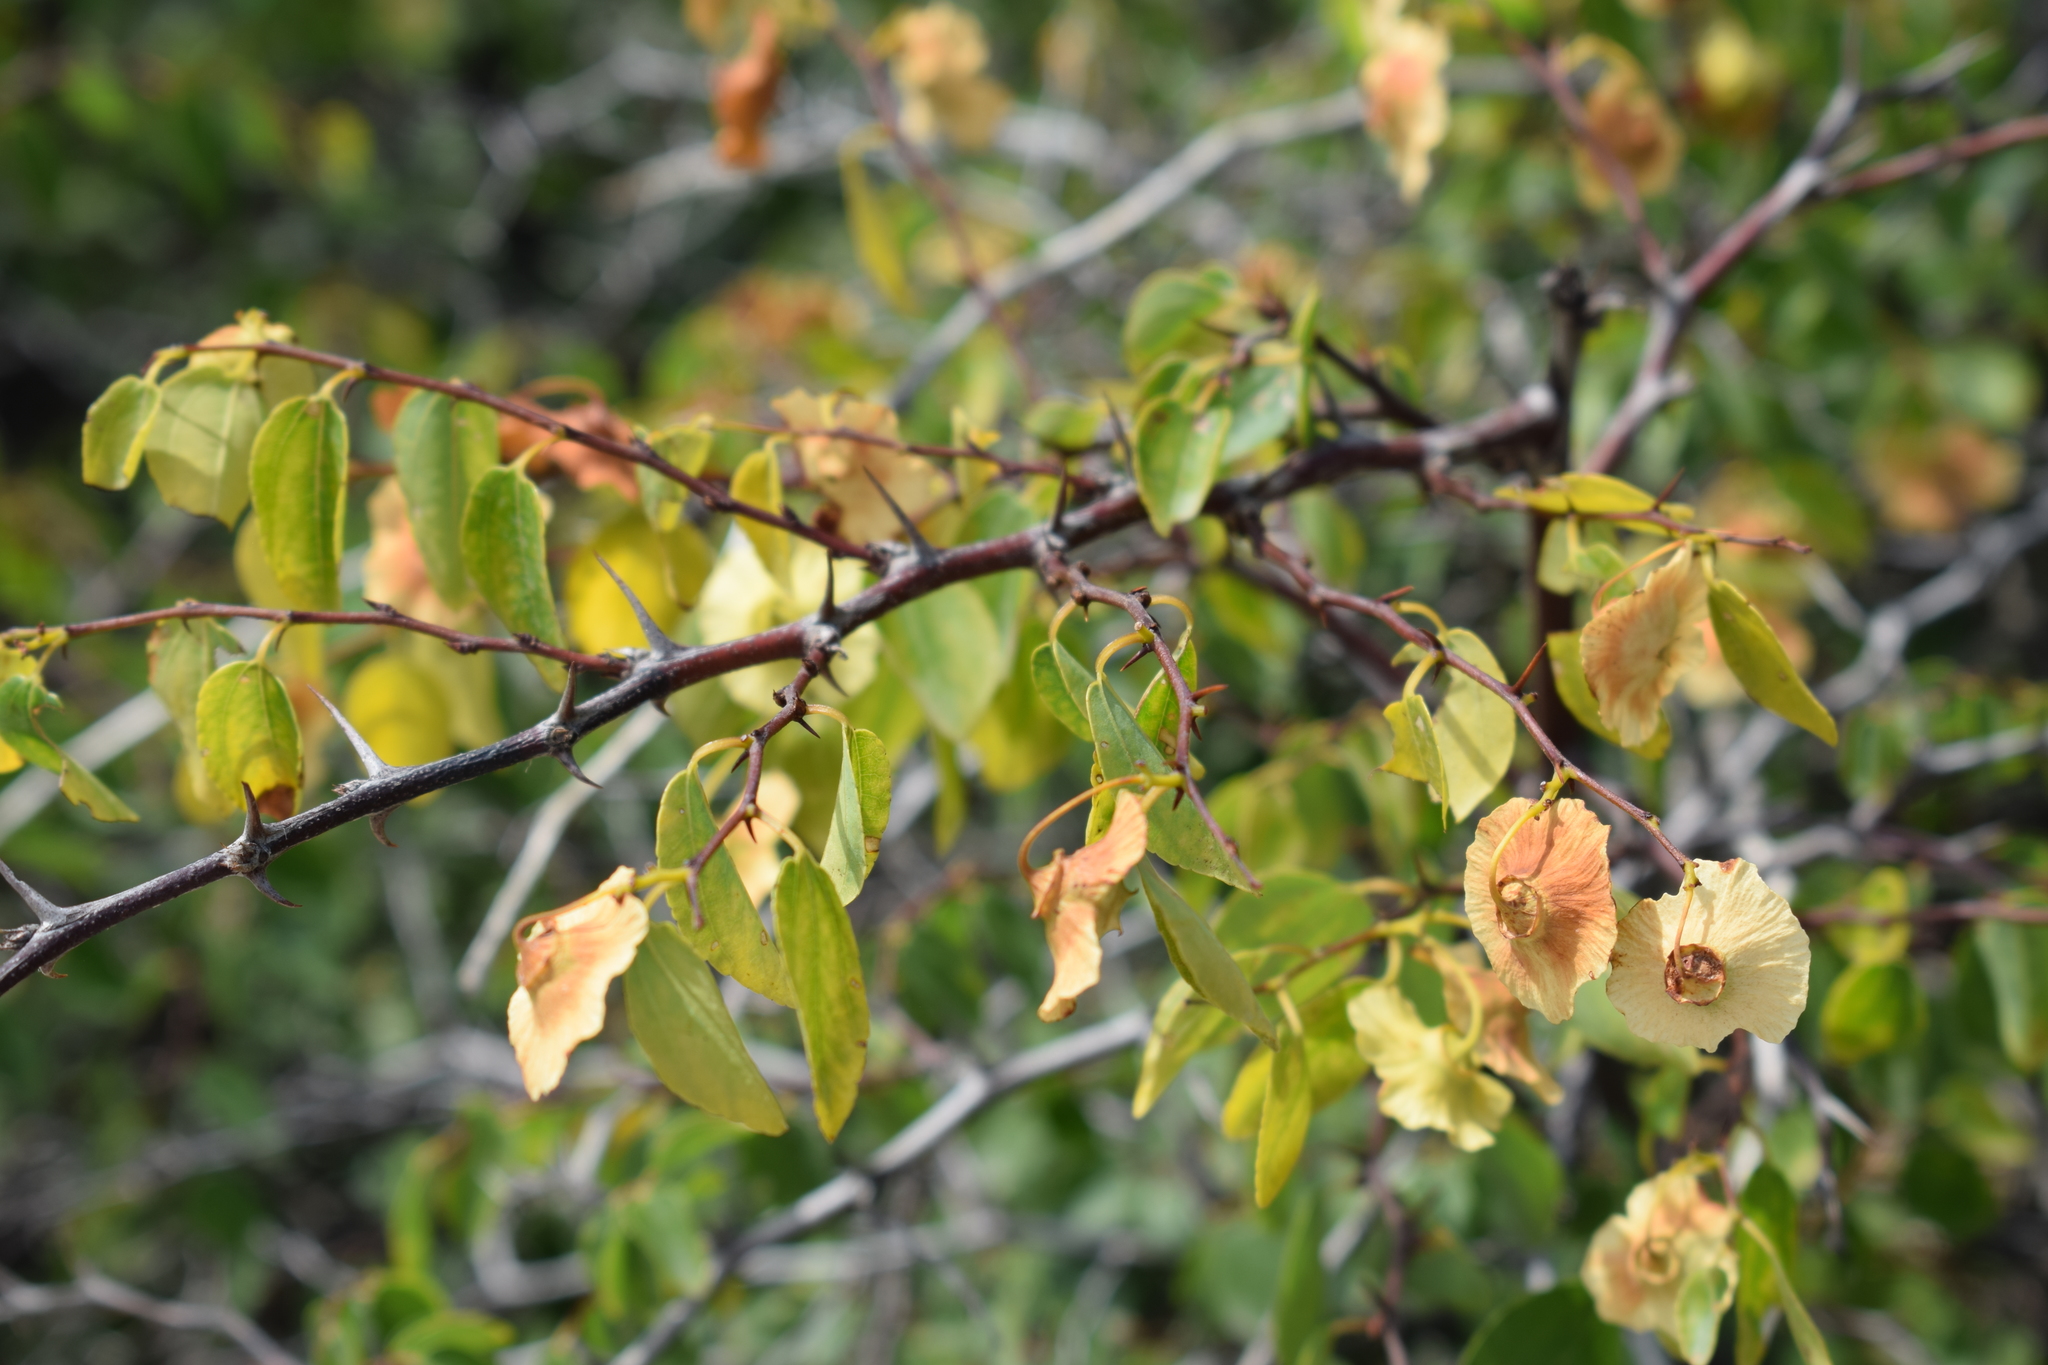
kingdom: Plantae
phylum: Tracheophyta
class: Magnoliopsida
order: Rosales
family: Rhamnaceae
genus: Paliurus
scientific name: Paliurus spina-christi
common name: Jeruselem thorn
